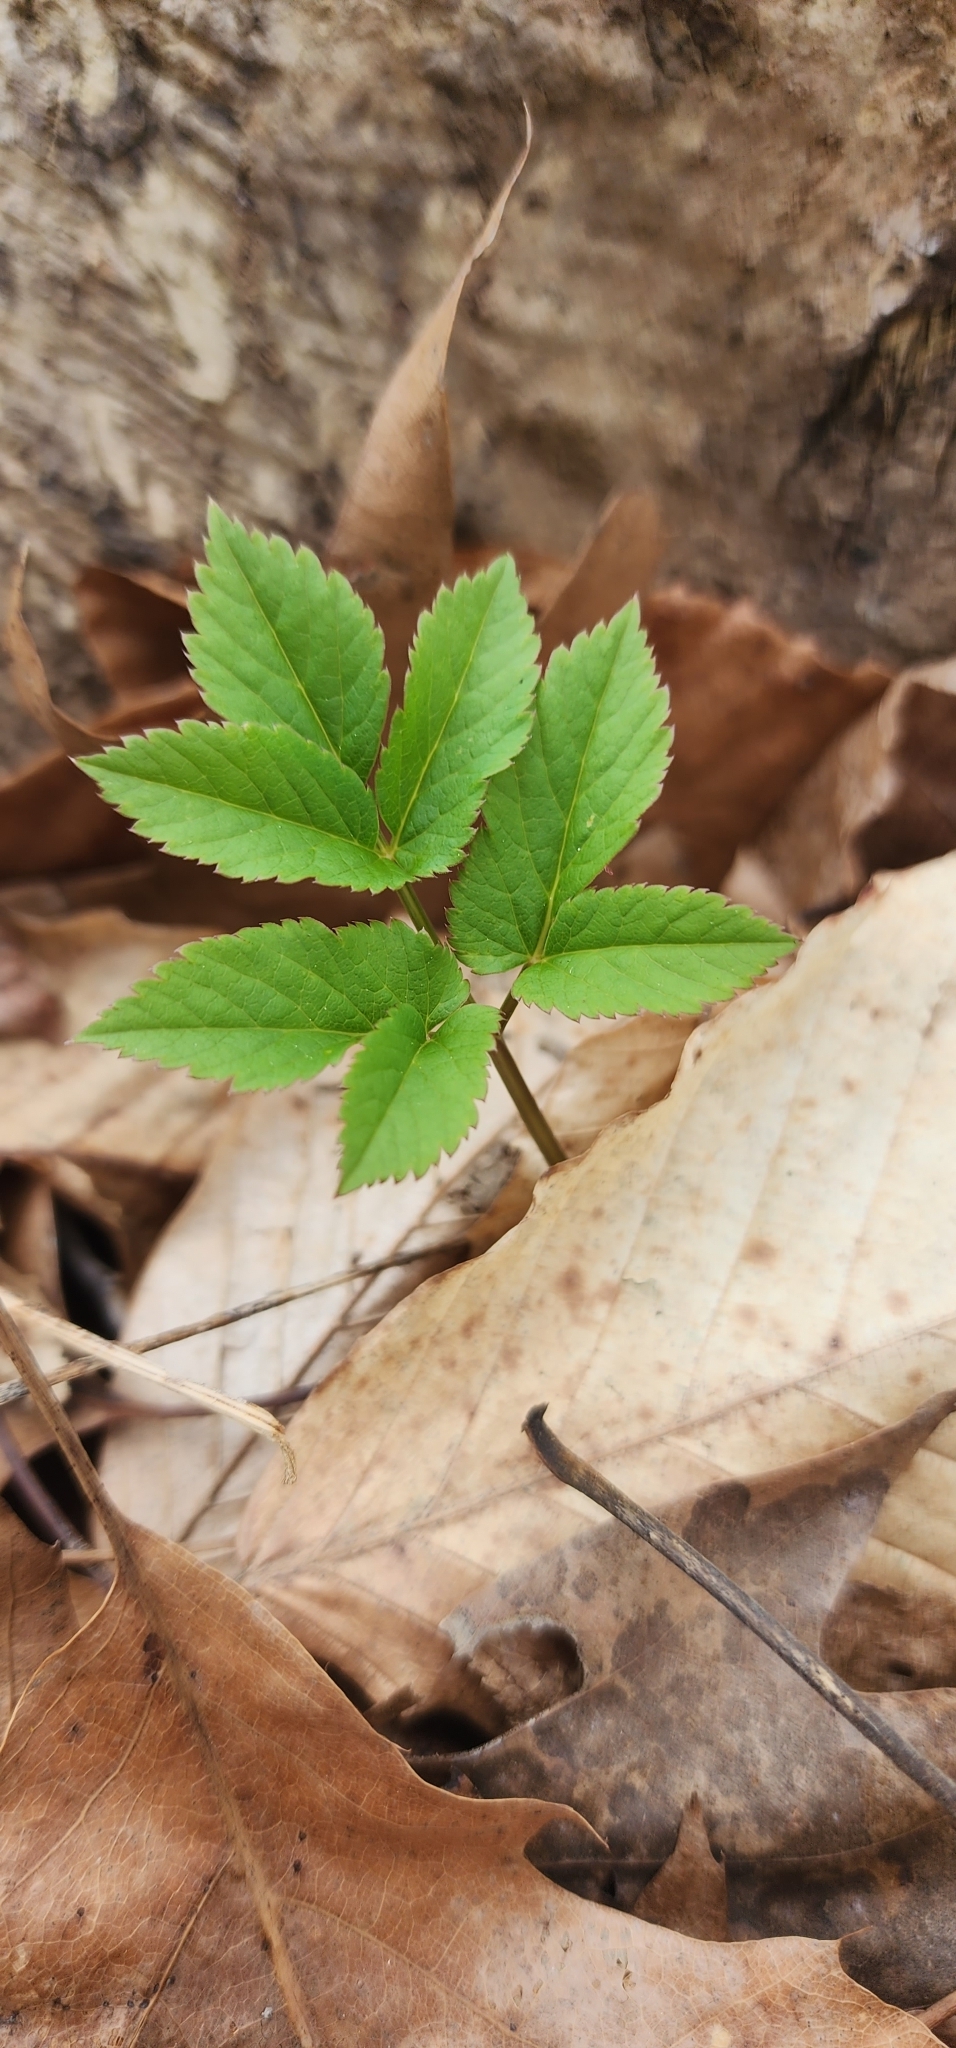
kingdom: Plantae
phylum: Tracheophyta
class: Magnoliopsida
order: Apiales
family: Apiaceae
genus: Aegopodium
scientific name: Aegopodium podagraria
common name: Ground-elder
